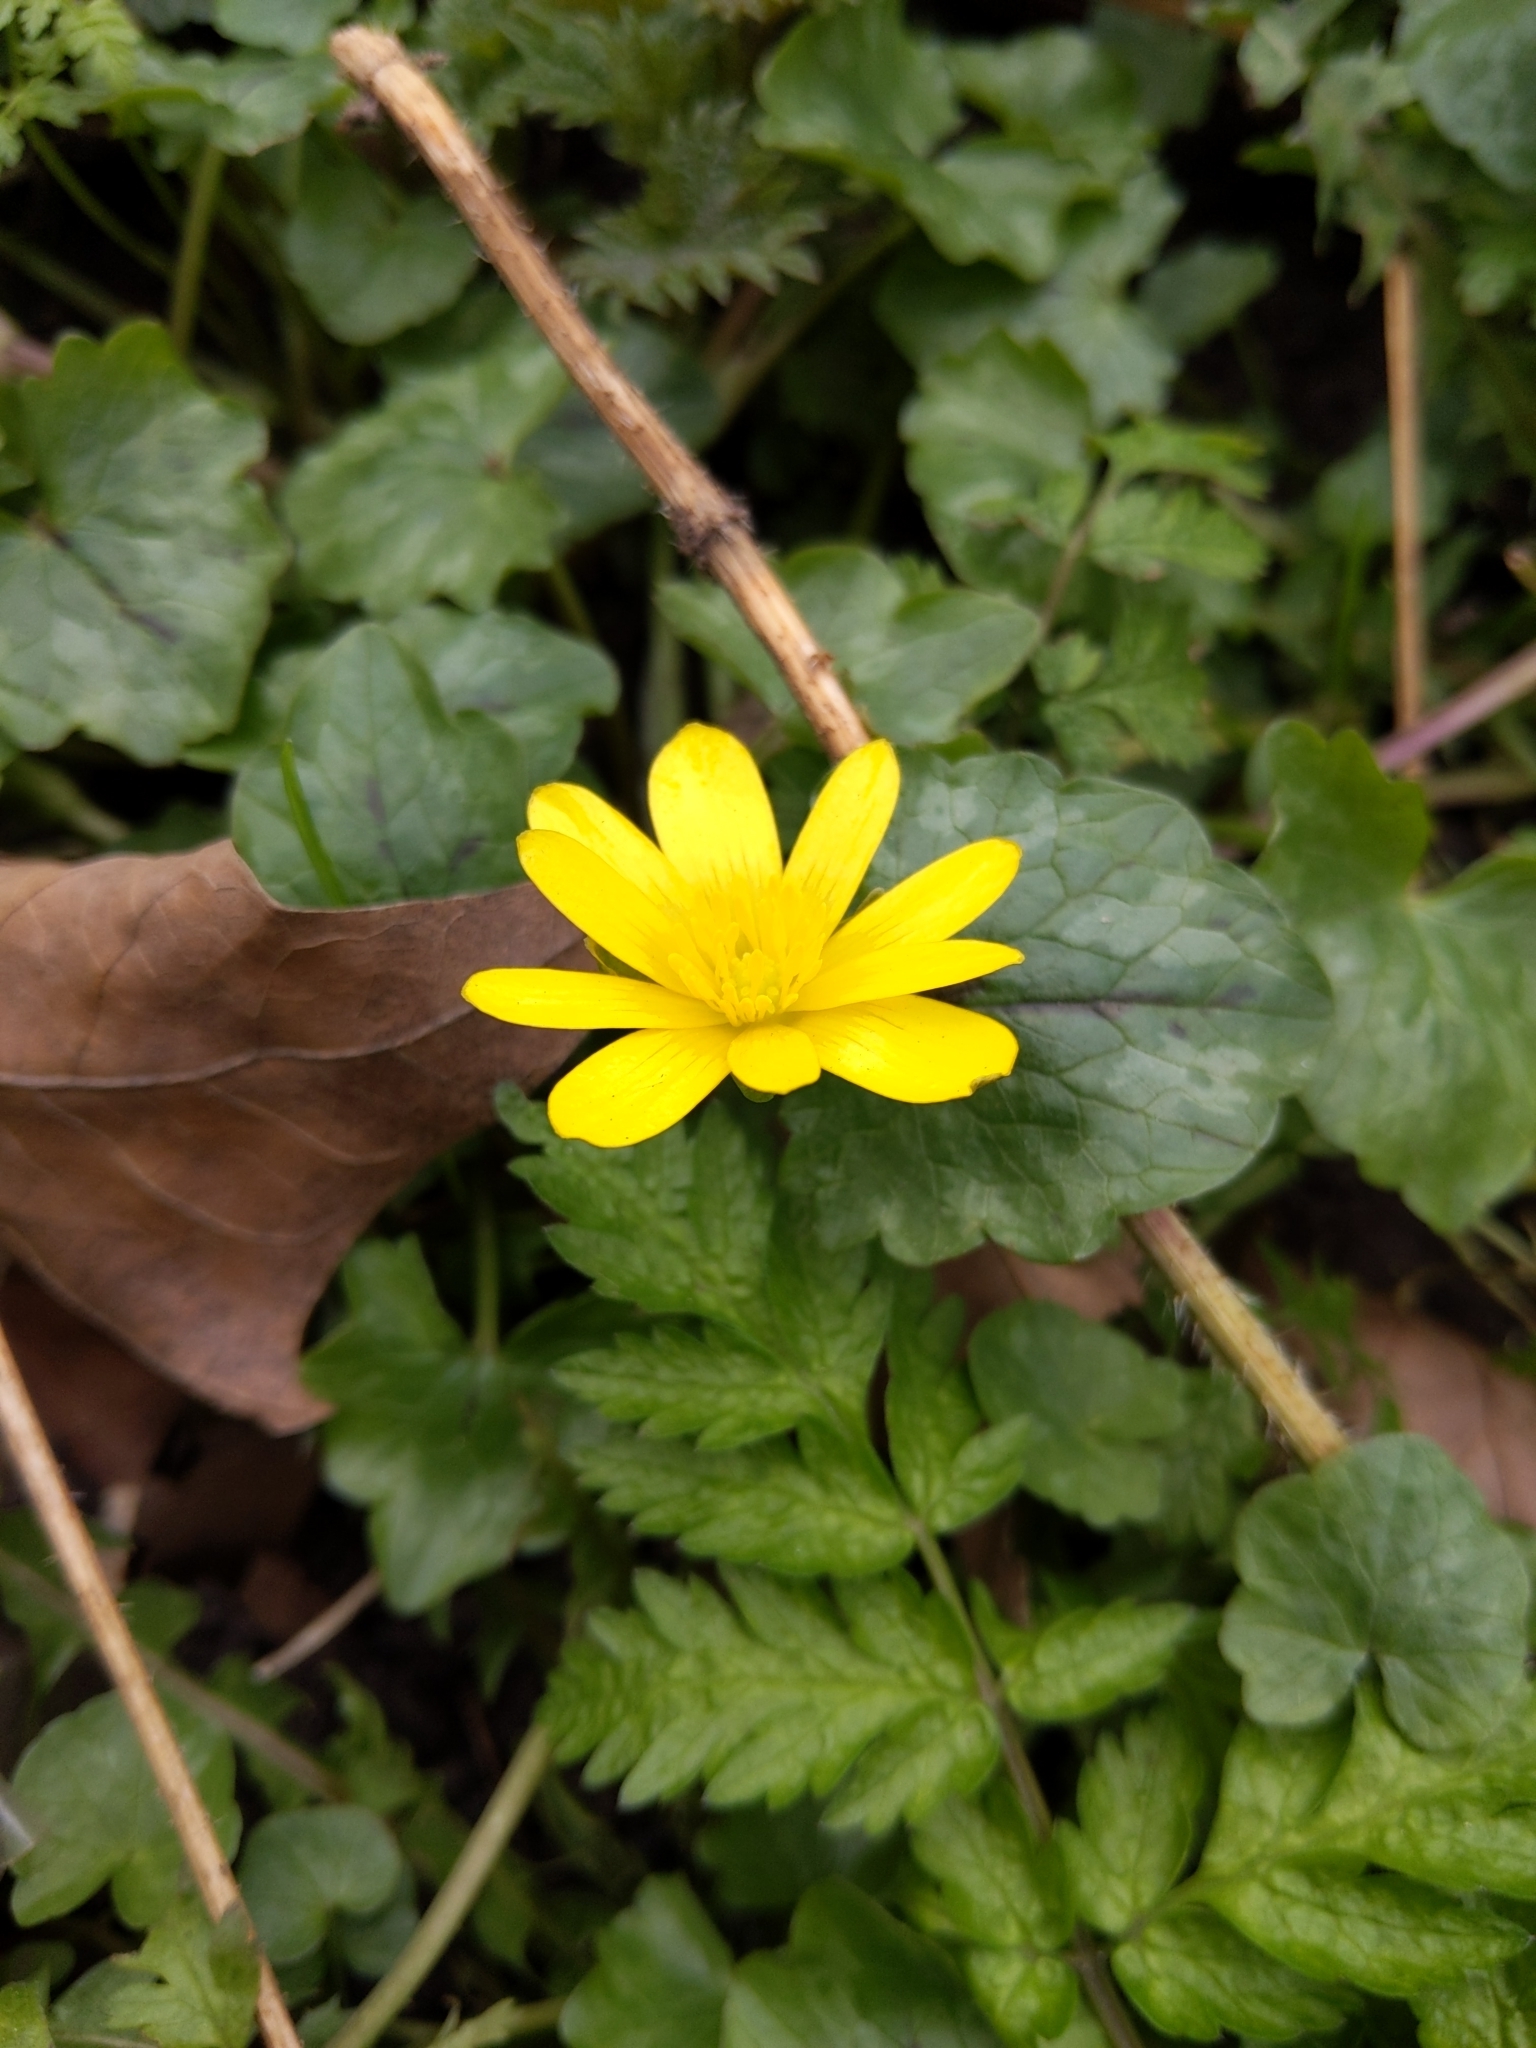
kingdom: Plantae
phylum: Tracheophyta
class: Magnoliopsida
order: Ranunculales
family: Ranunculaceae
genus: Ficaria
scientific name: Ficaria verna
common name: Lesser celandine
